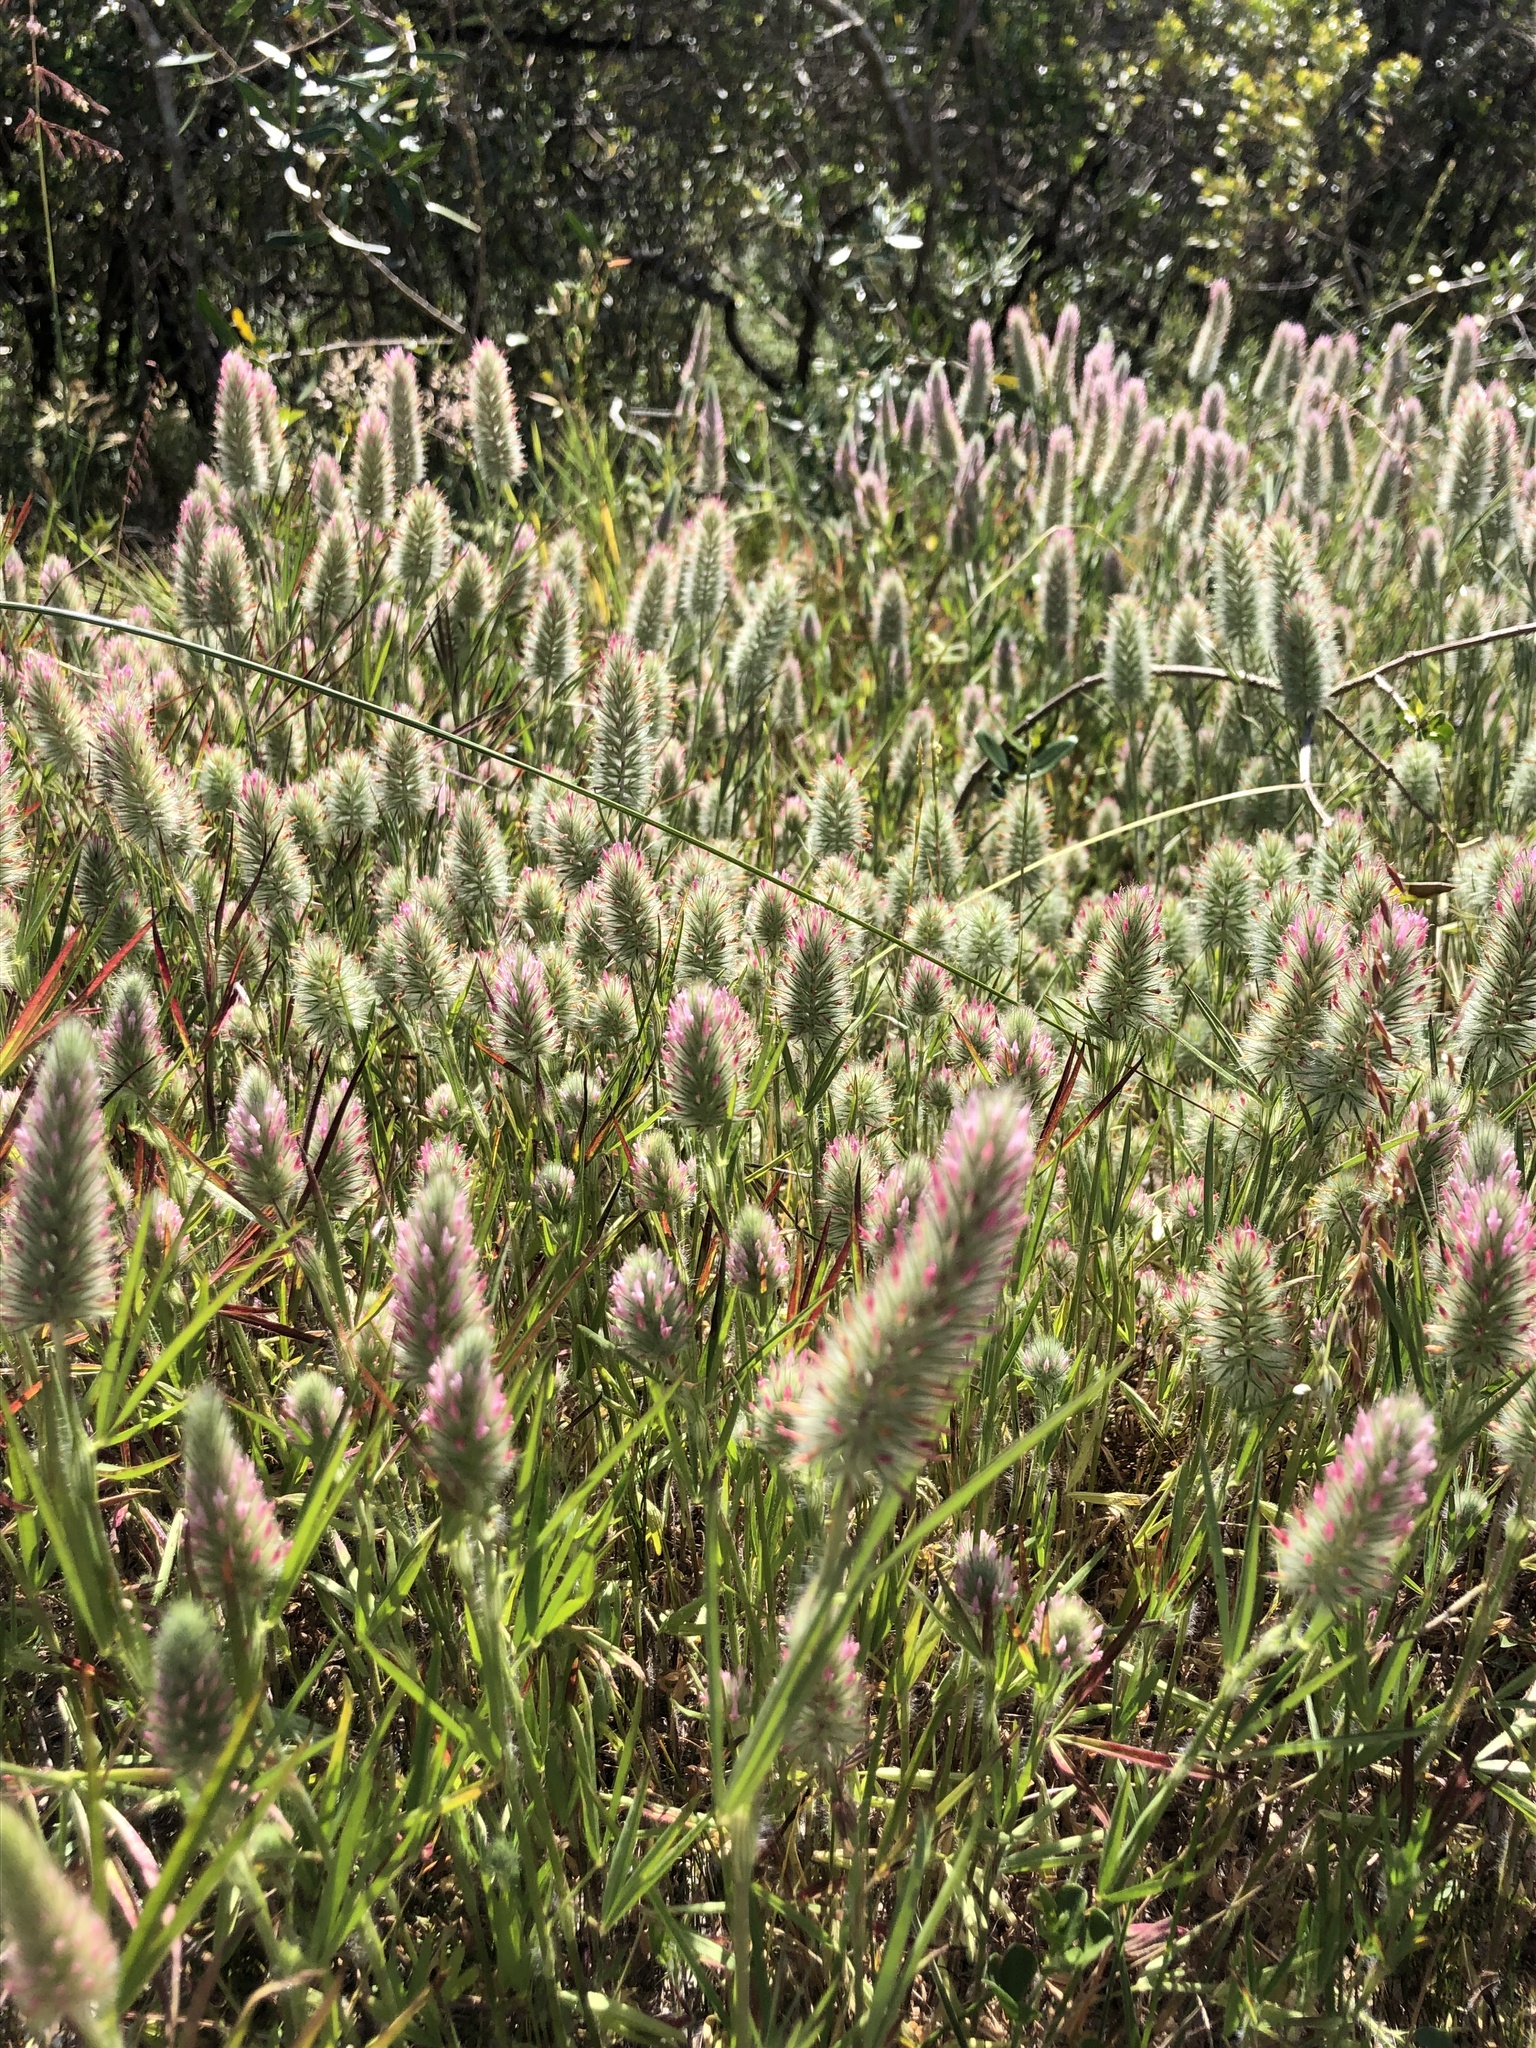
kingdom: Plantae
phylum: Tracheophyta
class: Magnoliopsida
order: Fabales
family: Fabaceae
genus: Trifolium
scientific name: Trifolium angustifolium
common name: Narrow clover
